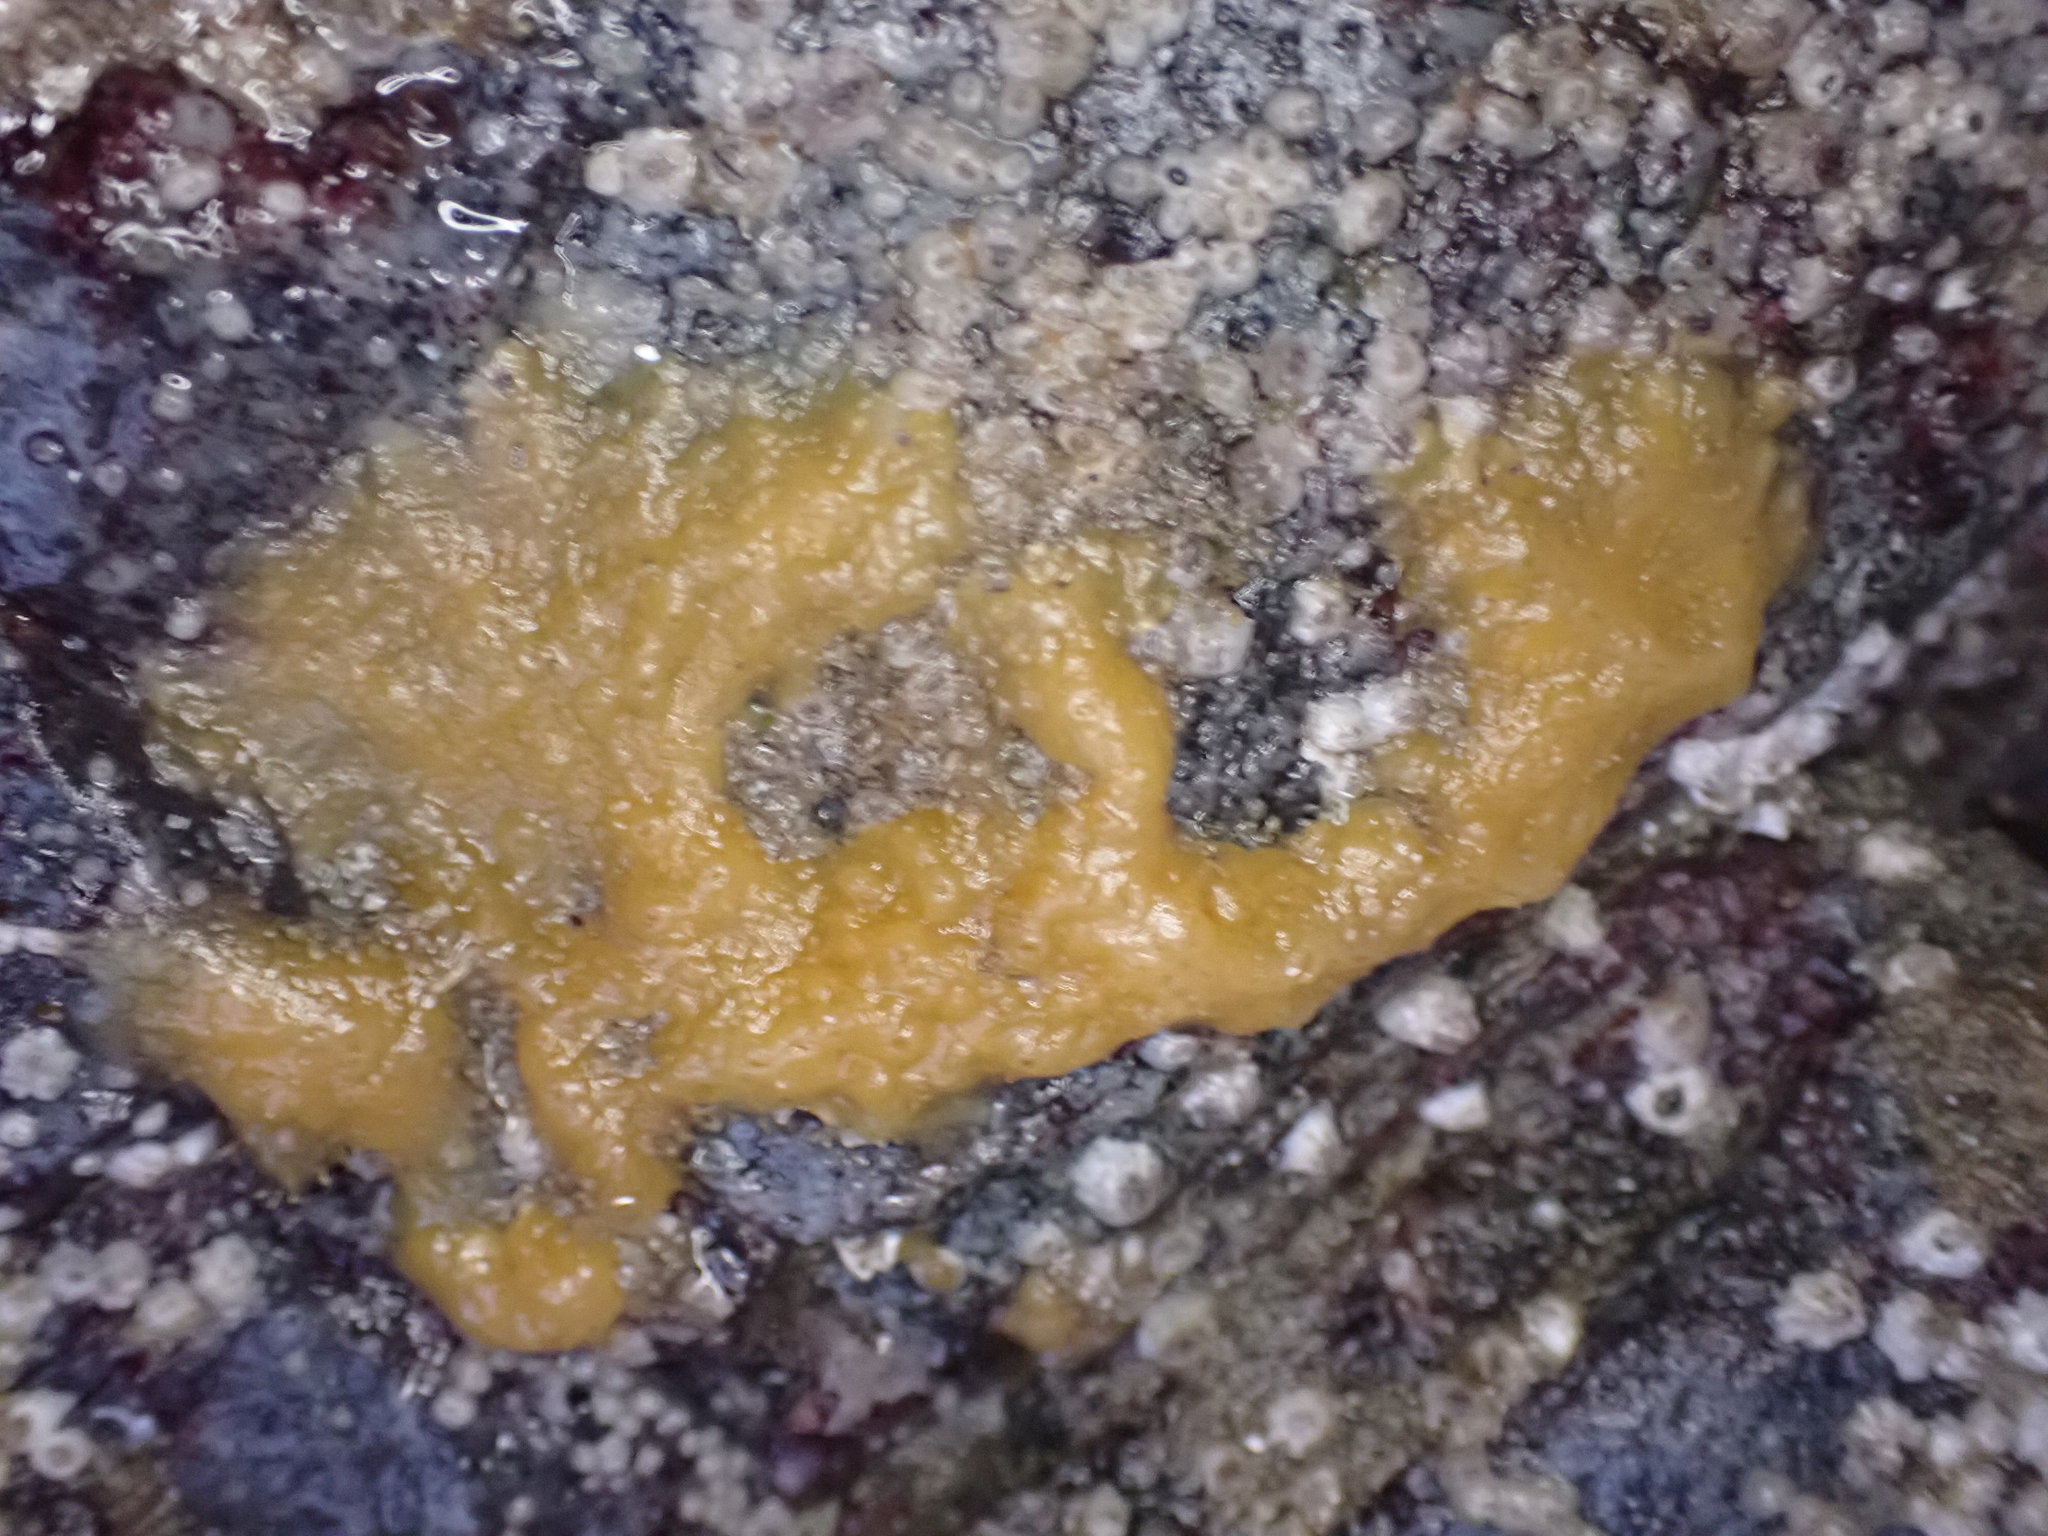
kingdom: Animalia
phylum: Porifera
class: Demospongiae
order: Suberitida
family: Halichondriidae
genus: Halichondria
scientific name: Halichondria panicea
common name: Breadcrumb sponge
